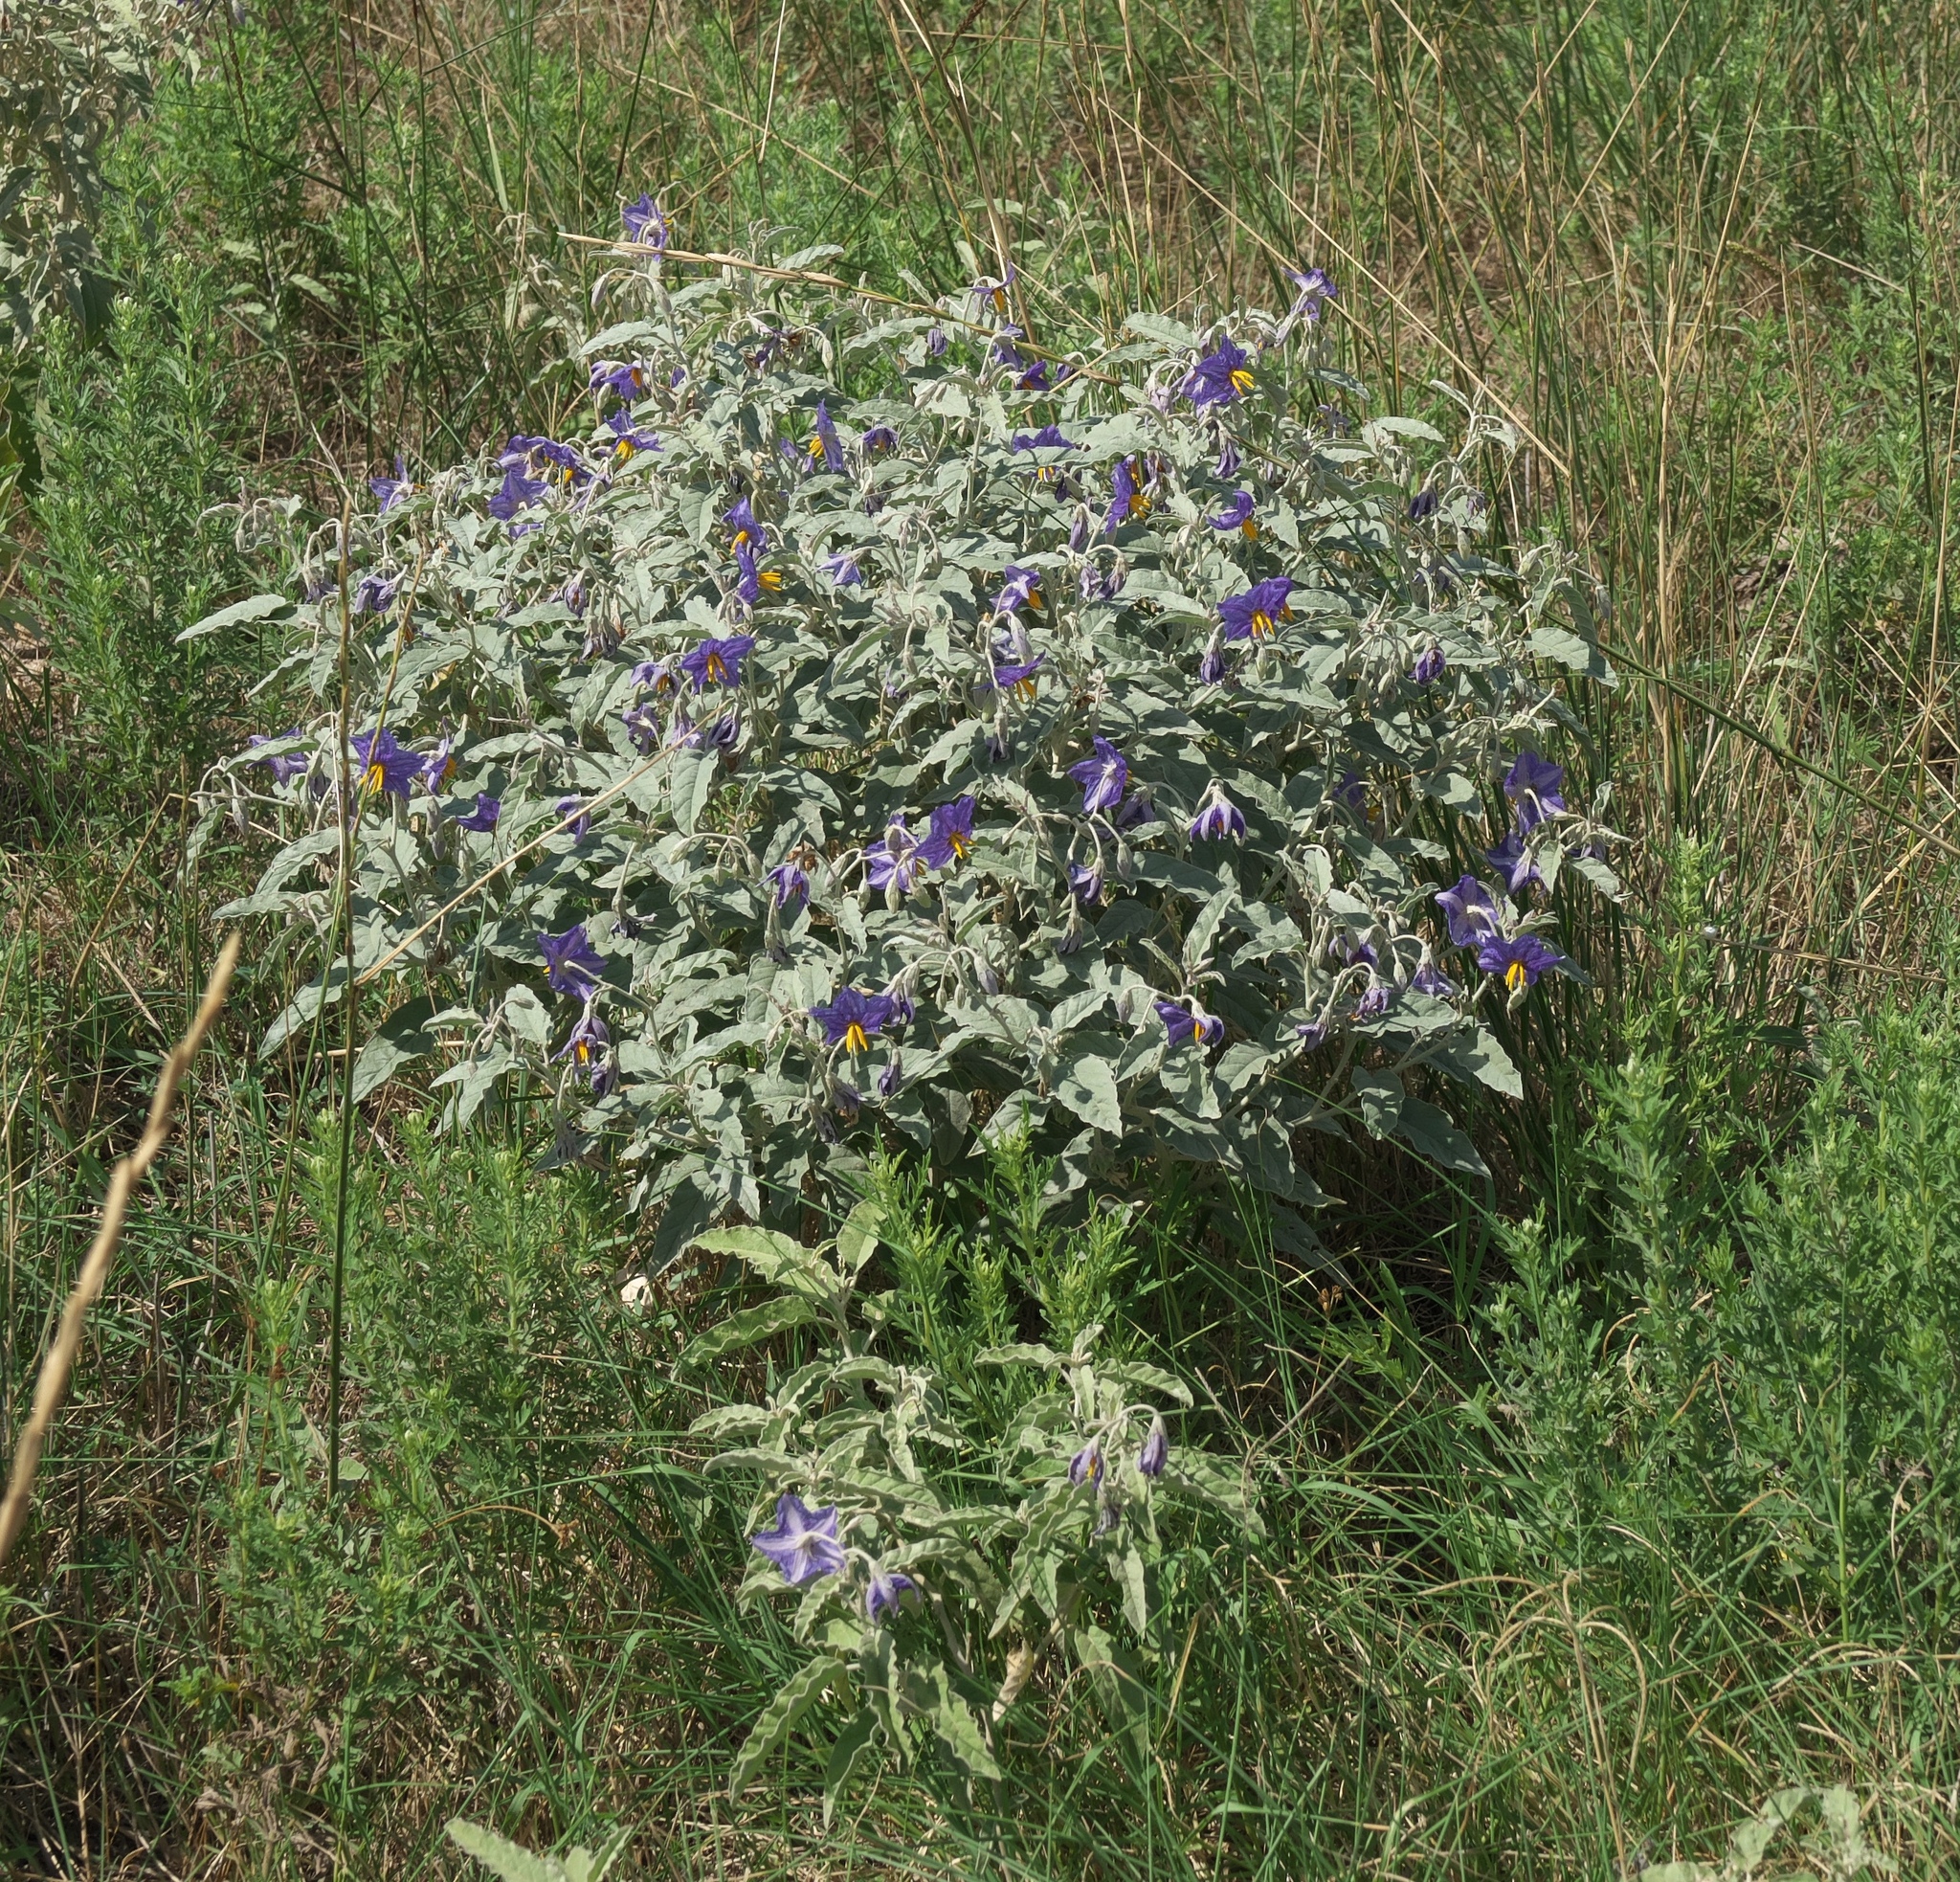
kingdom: Plantae
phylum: Tracheophyta
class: Magnoliopsida
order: Solanales
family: Solanaceae
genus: Solanum
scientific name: Solanum elaeagnifolium
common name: Silverleaf nightshade
